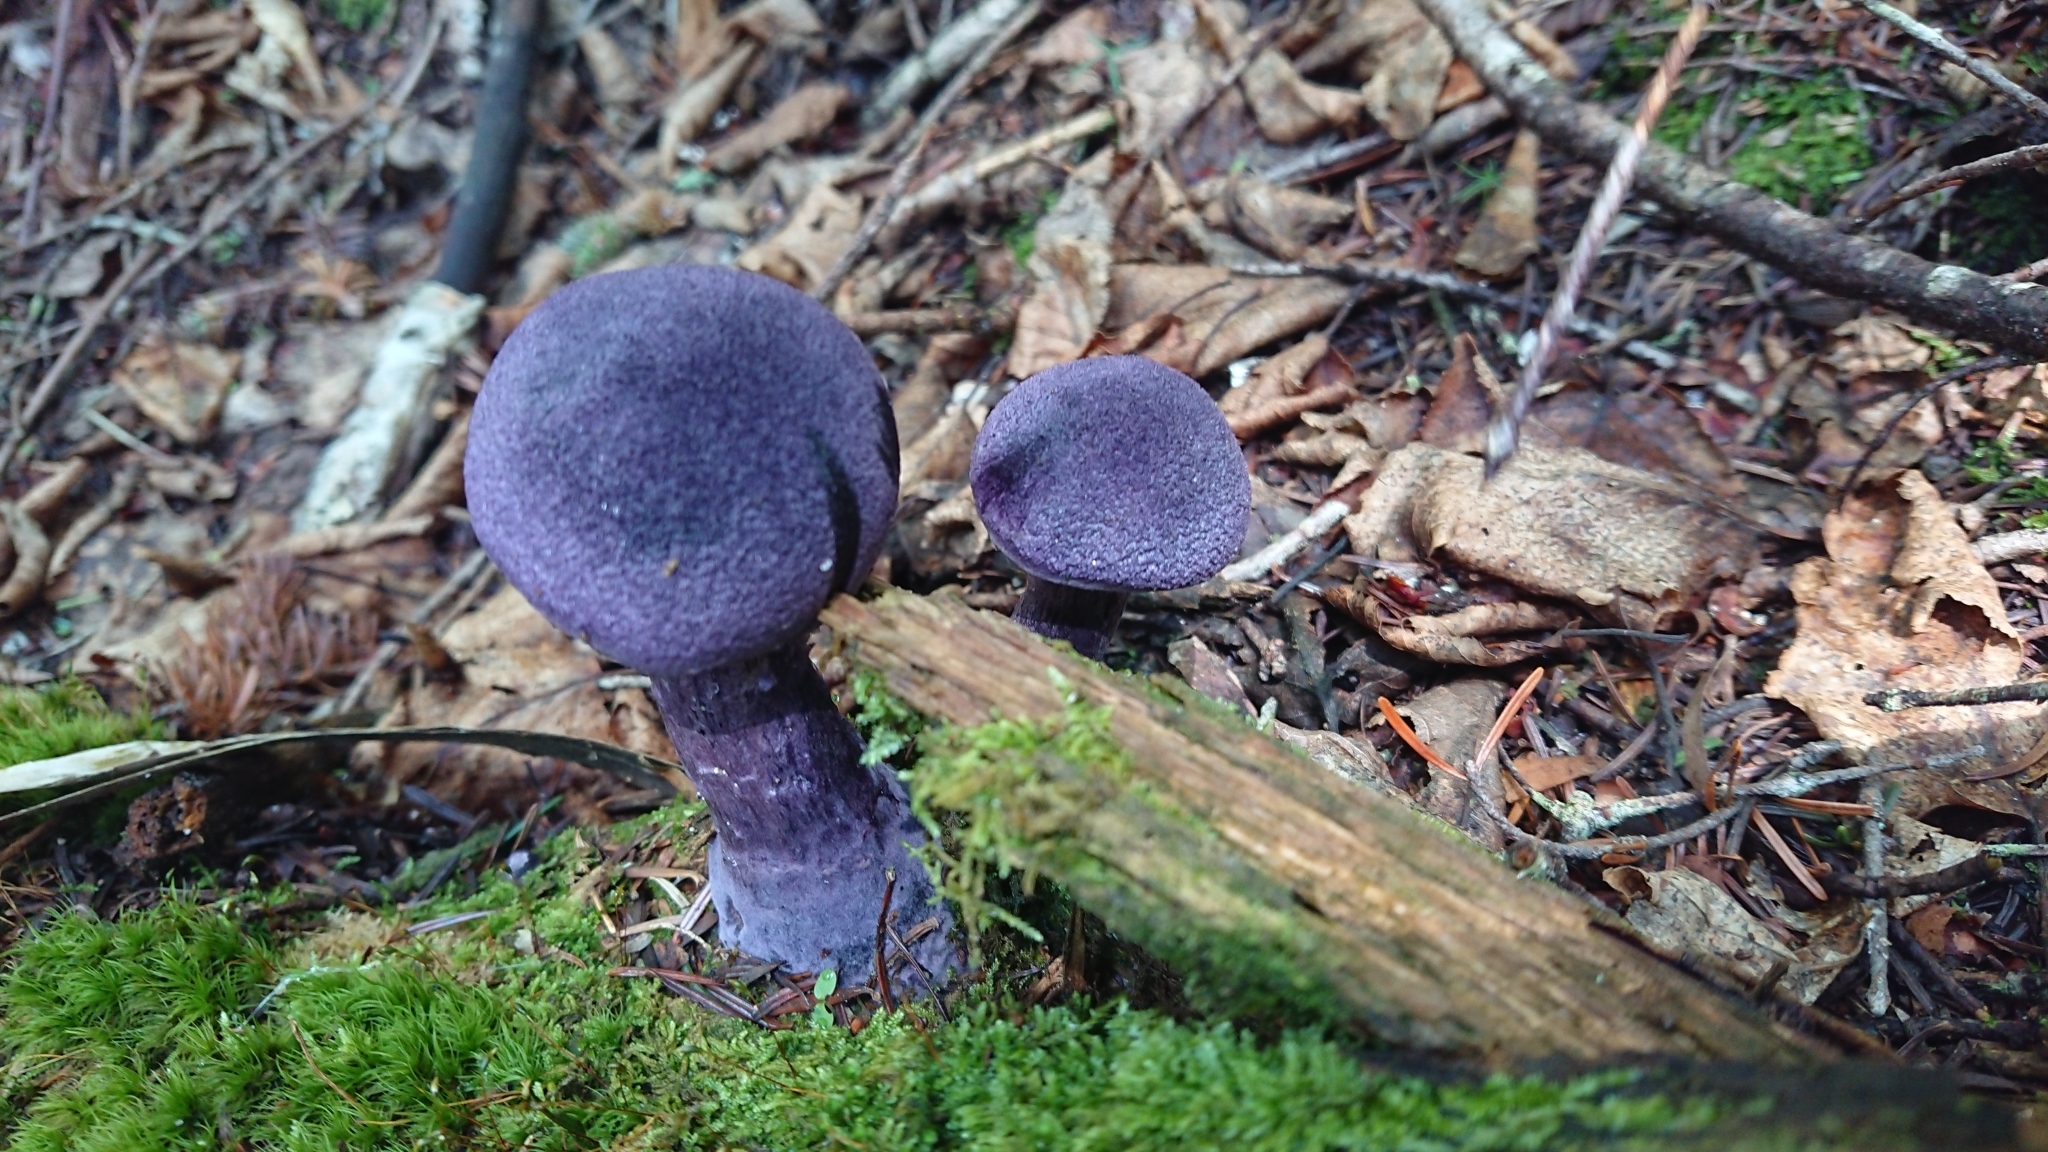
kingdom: Fungi
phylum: Basidiomycota
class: Agaricomycetes
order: Agaricales
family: Cortinariaceae
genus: Cortinarius
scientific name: Cortinarius violaceus
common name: Violet webcap
